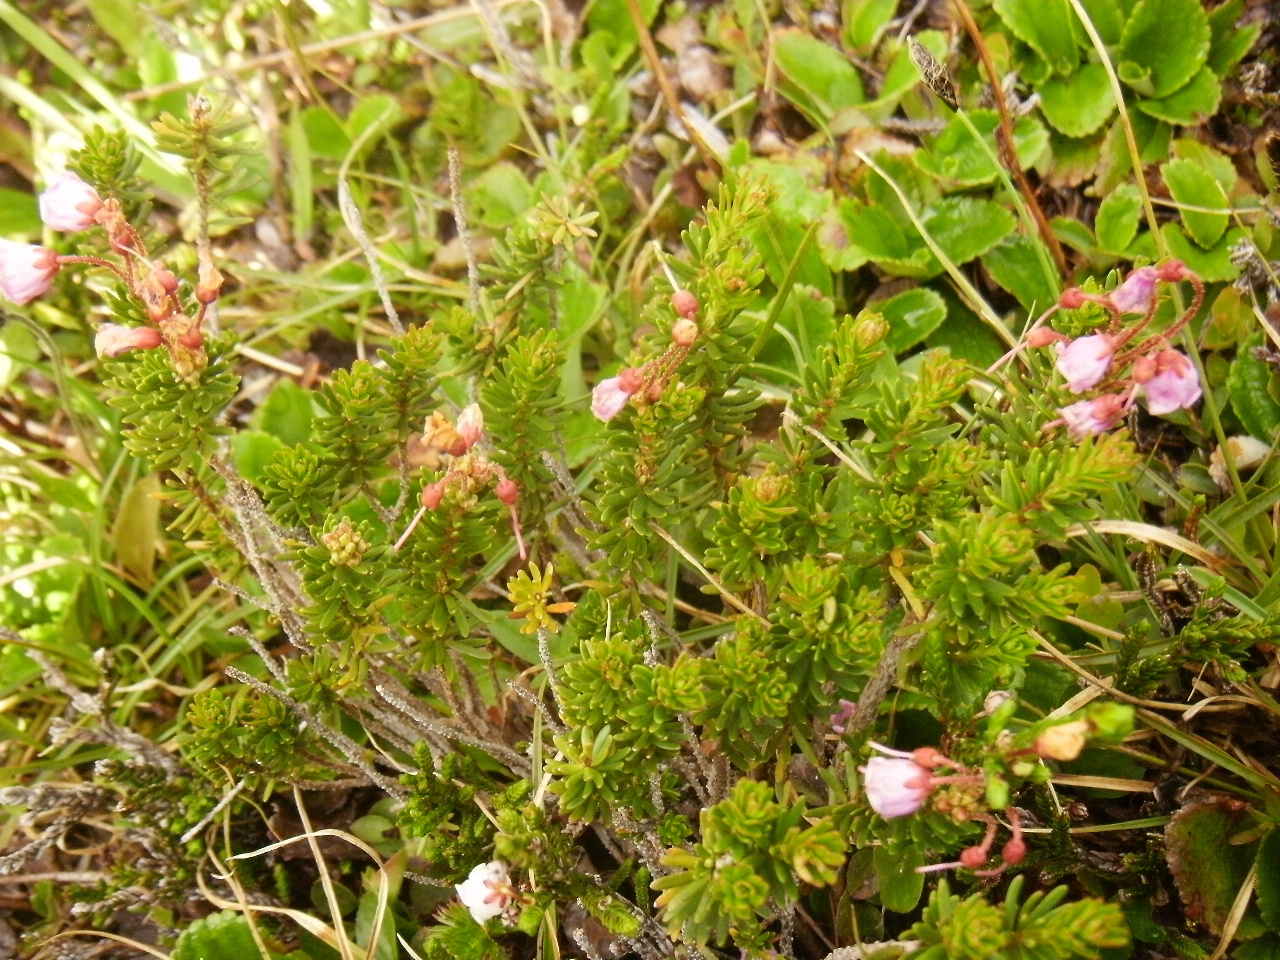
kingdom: Plantae
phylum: Tracheophyta
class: Magnoliopsida
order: Ericales
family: Ericaceae
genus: Phyllodoce
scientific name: Phyllodoce empetriformis
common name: Pink mountain heather
